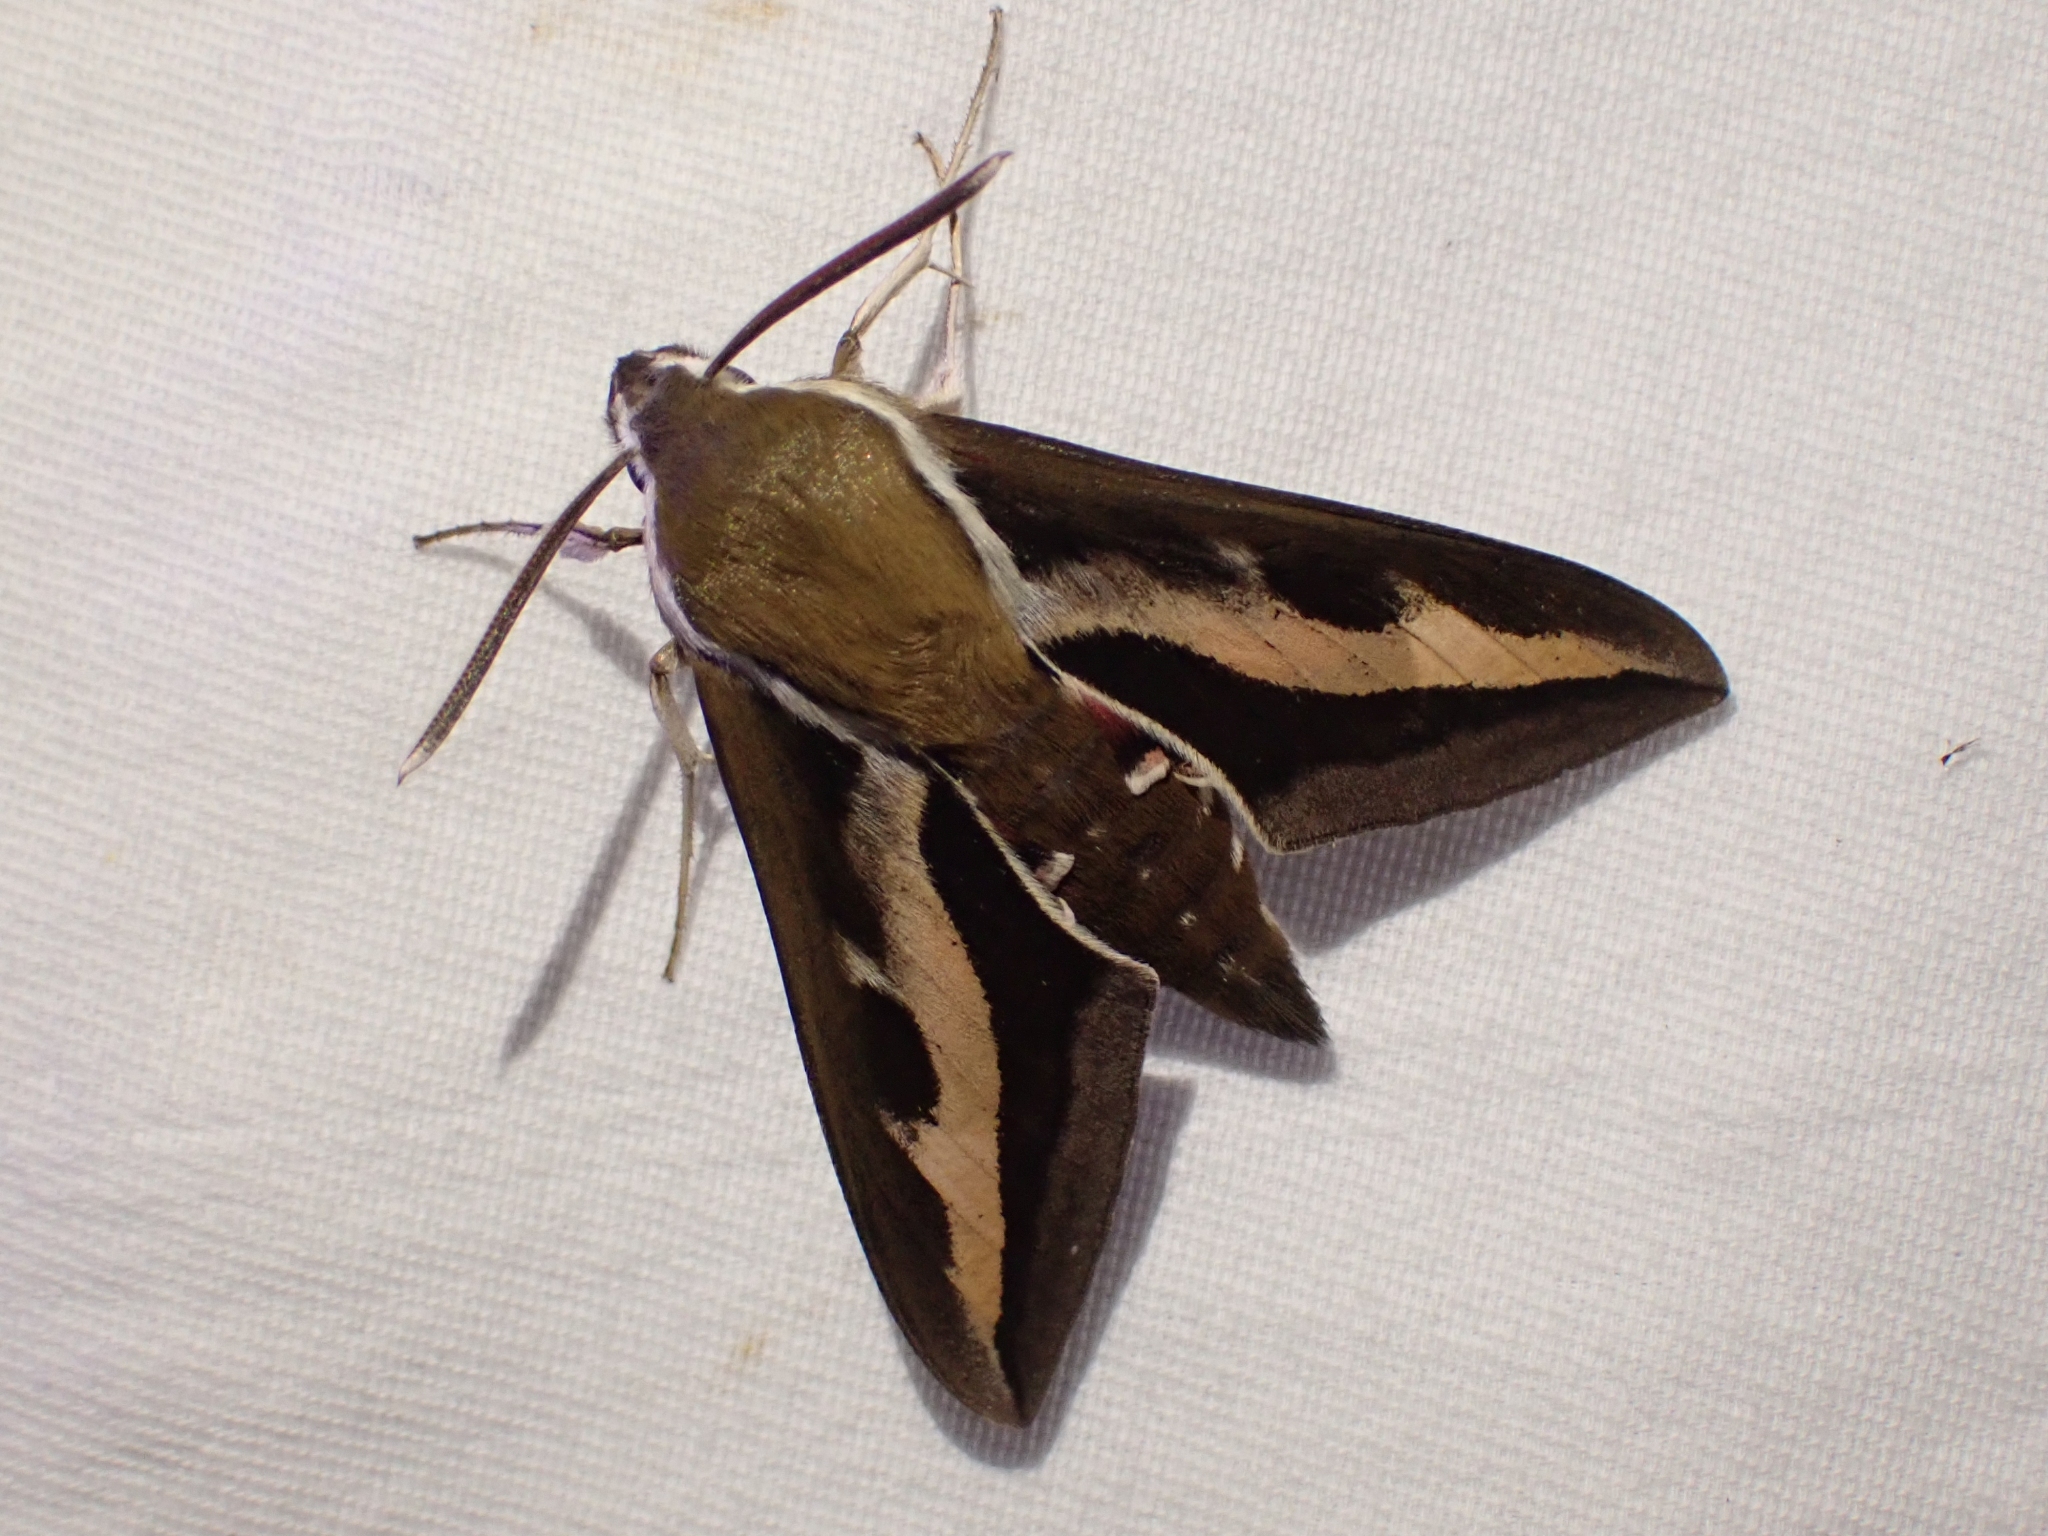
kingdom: Animalia
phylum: Arthropoda
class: Insecta
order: Lepidoptera
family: Sphingidae
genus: Hyles
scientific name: Hyles gallii
